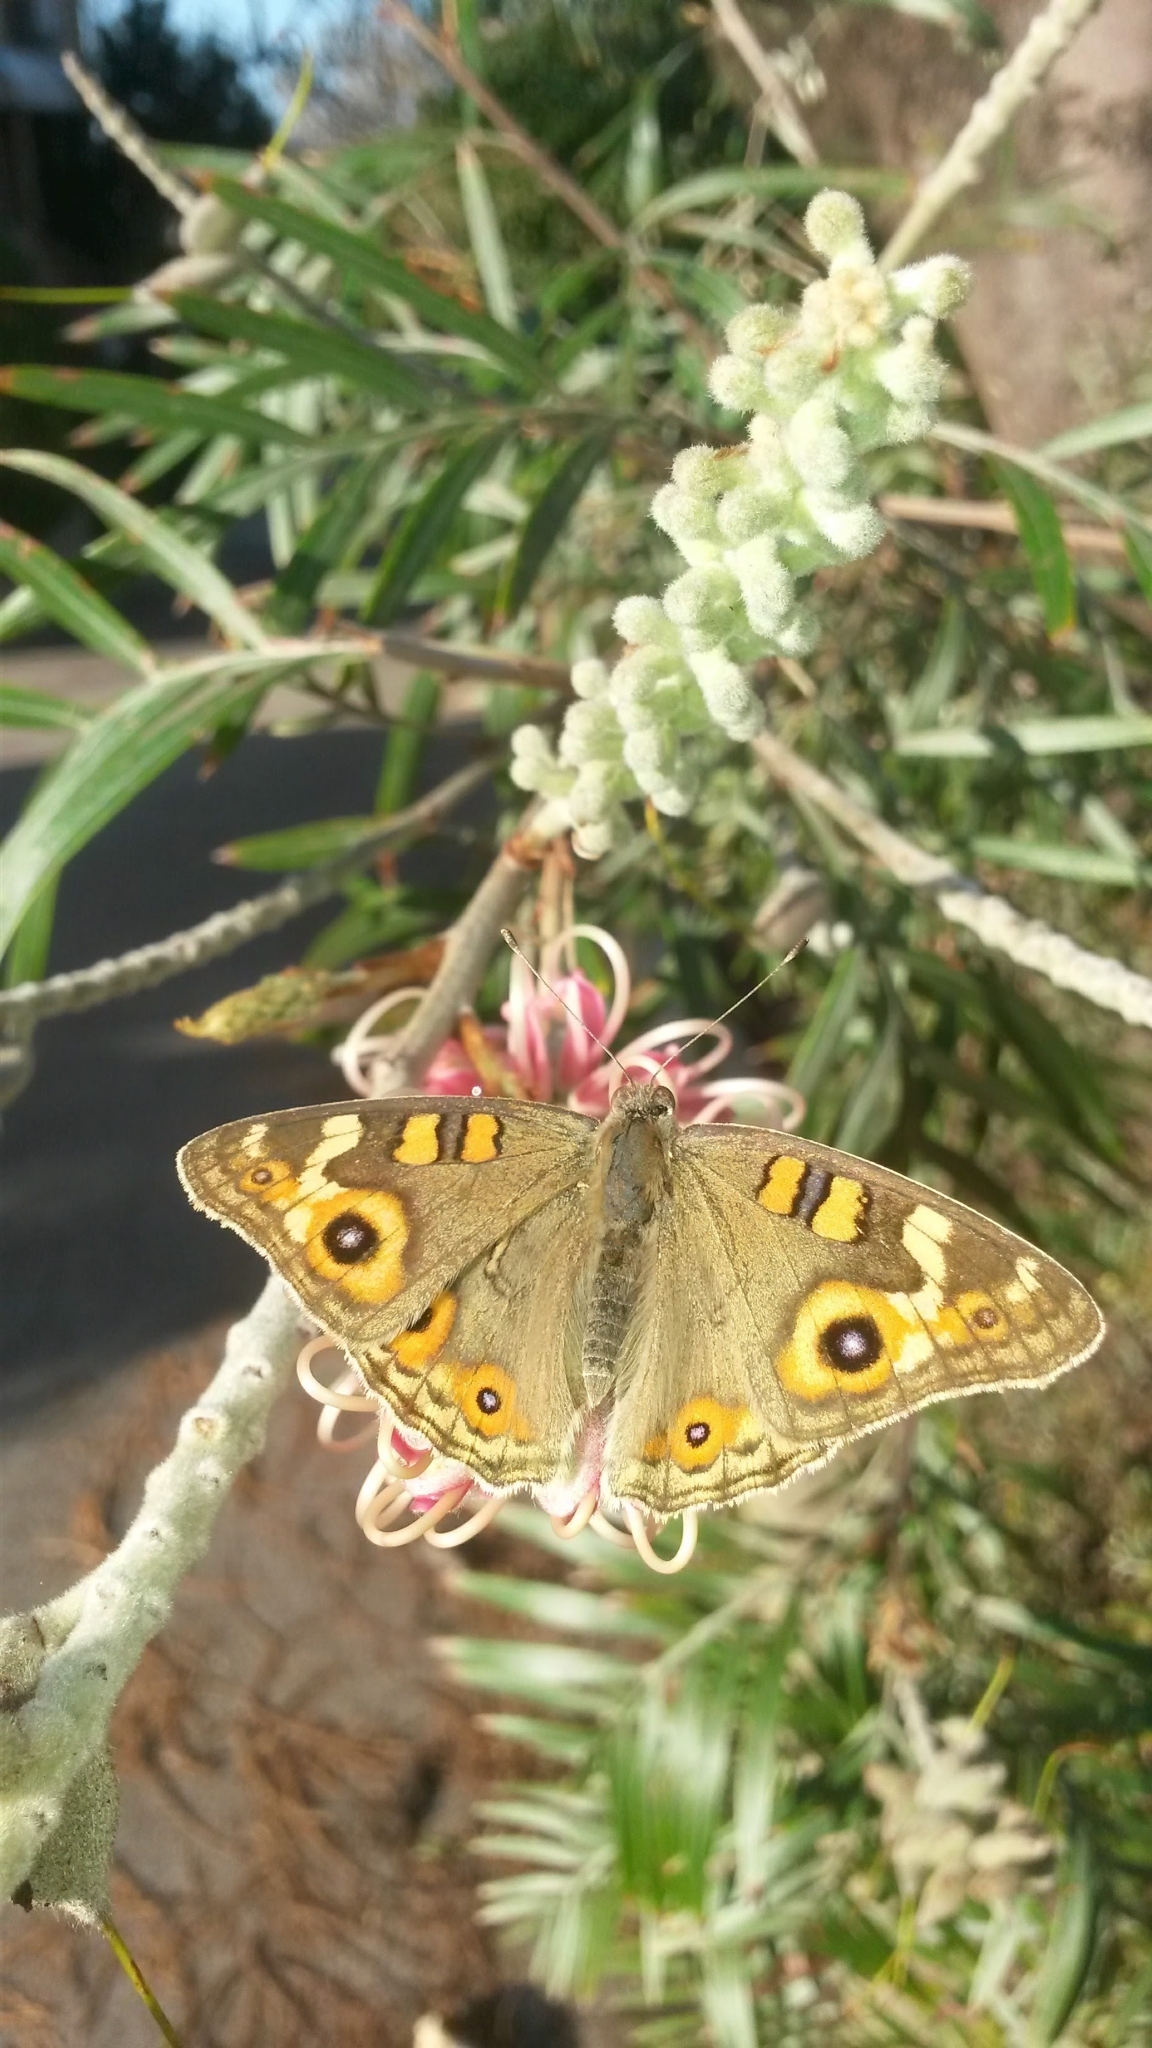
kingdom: Animalia
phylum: Arthropoda
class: Insecta
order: Lepidoptera
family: Nymphalidae
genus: Junonia
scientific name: Junonia villida
